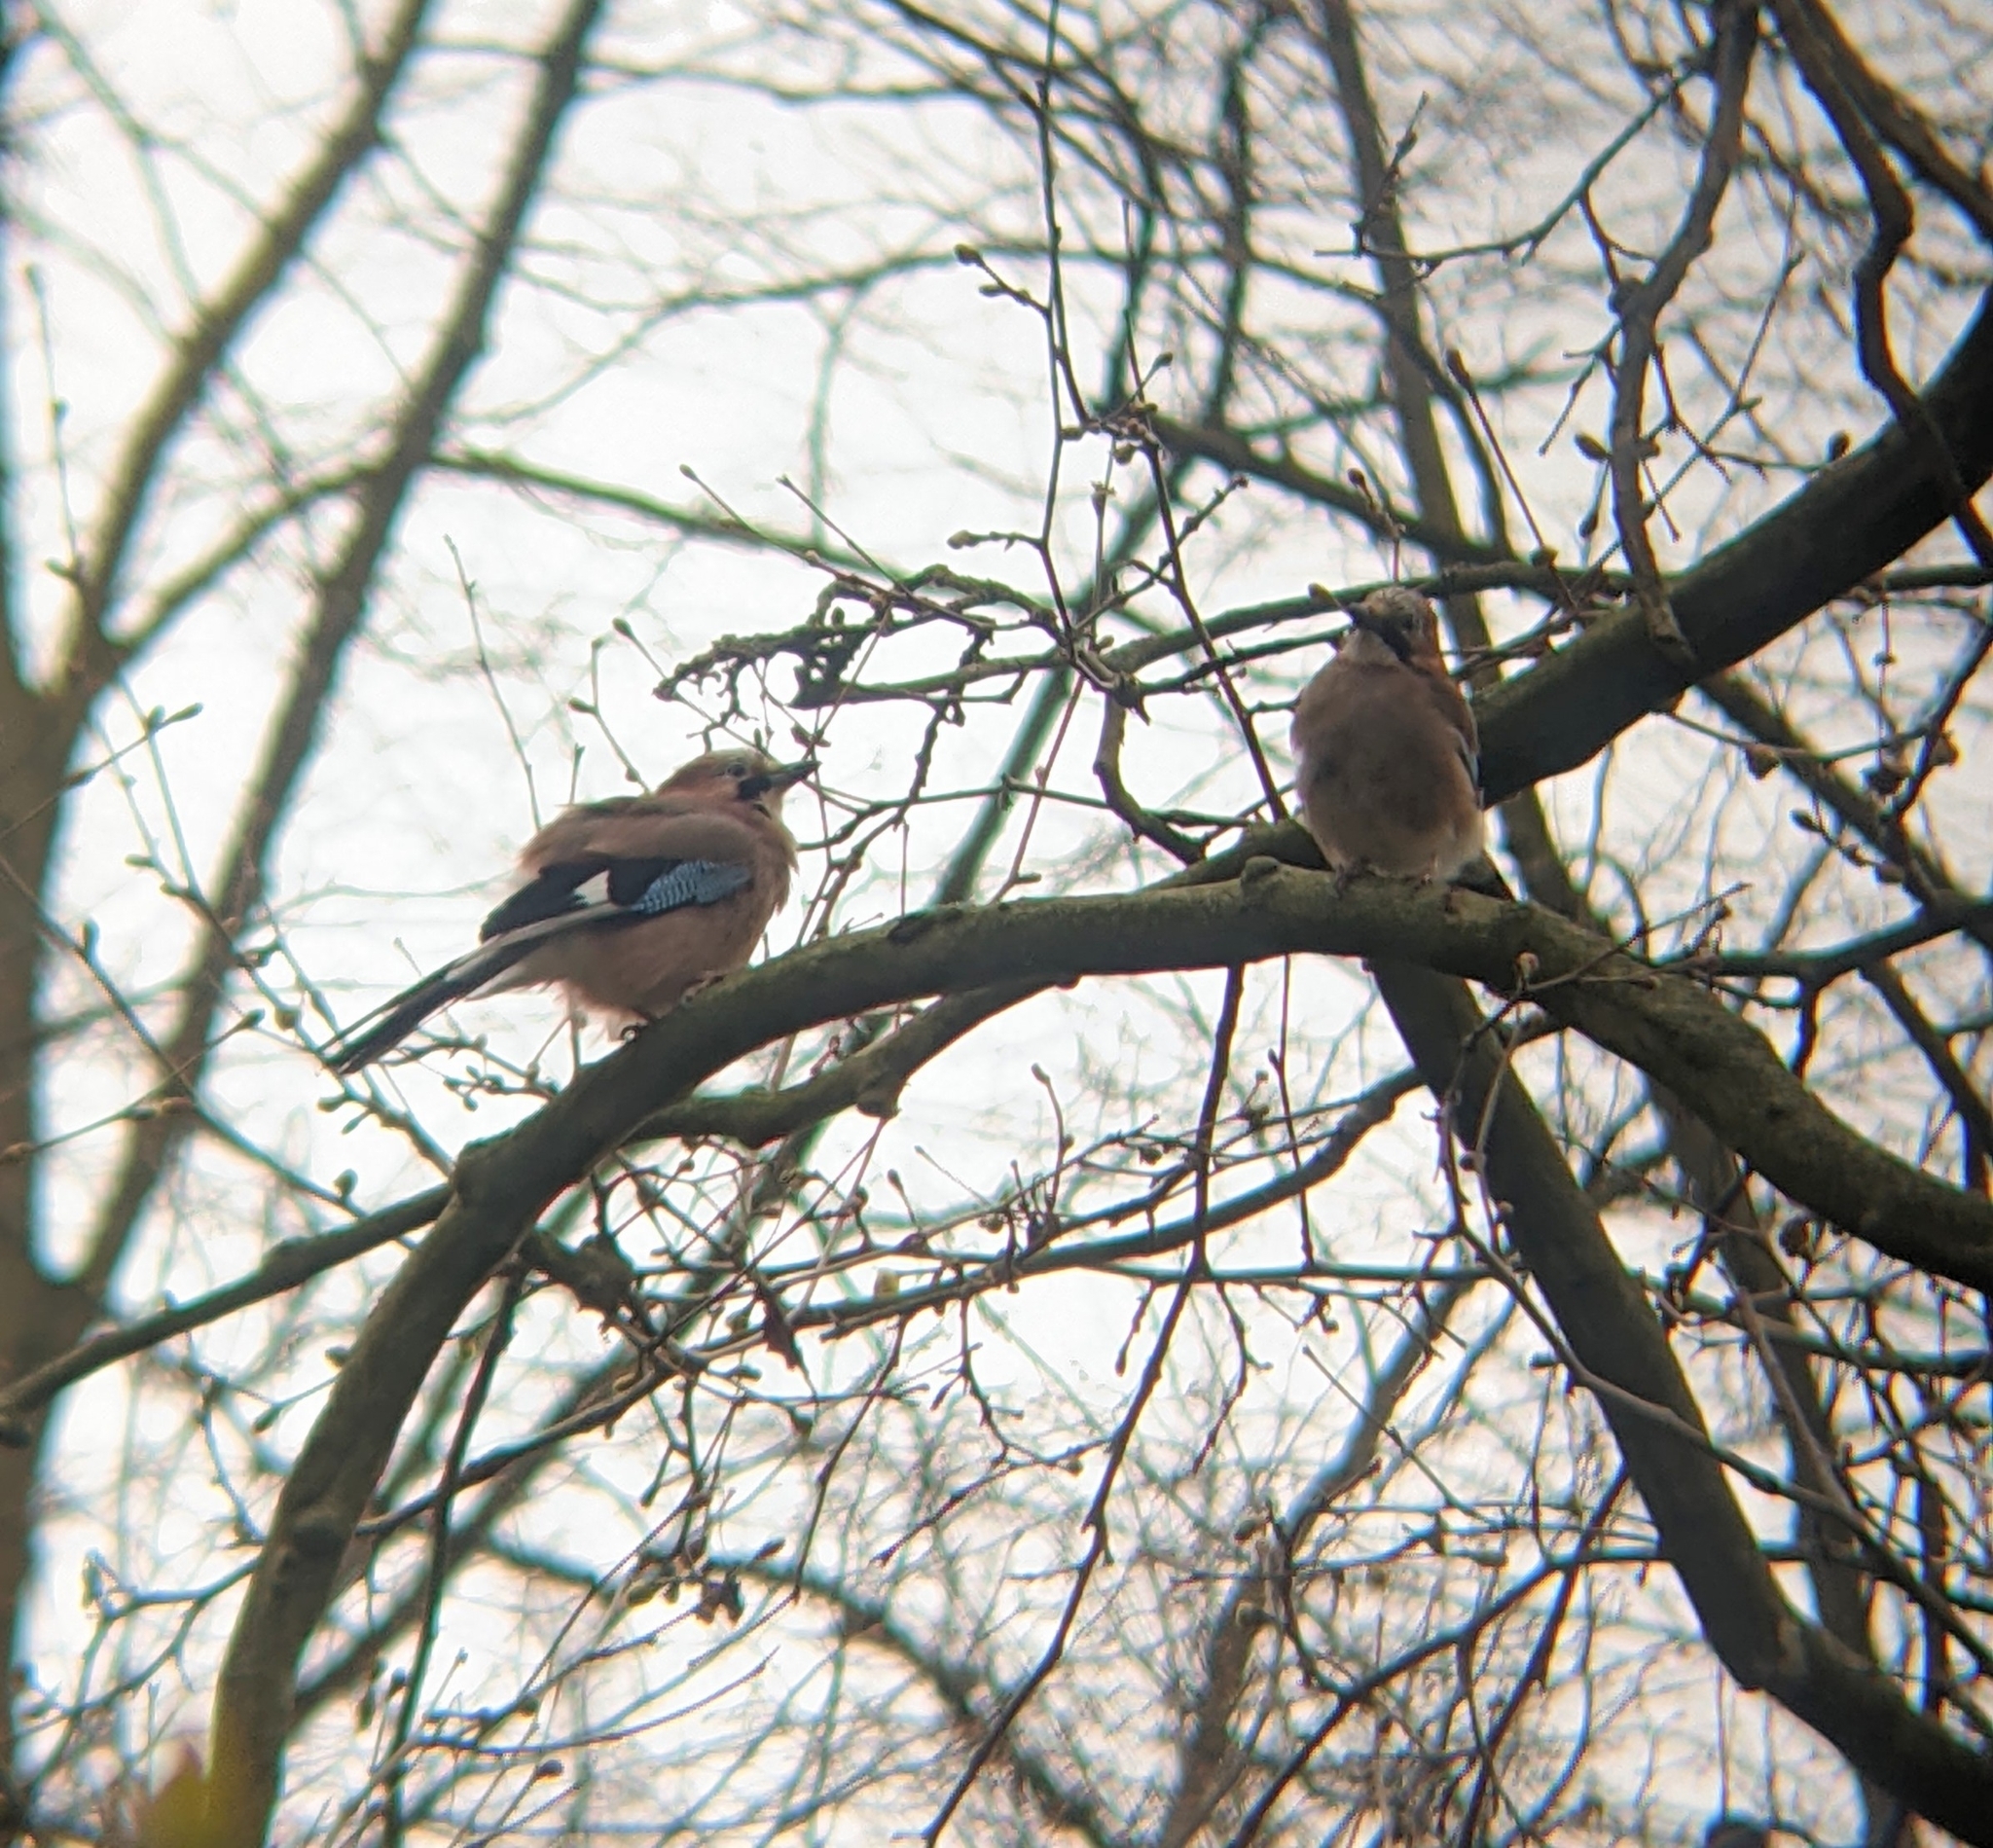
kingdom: Animalia
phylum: Chordata
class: Aves
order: Passeriformes
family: Corvidae
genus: Garrulus
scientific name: Garrulus glandarius
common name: Eurasian jay
